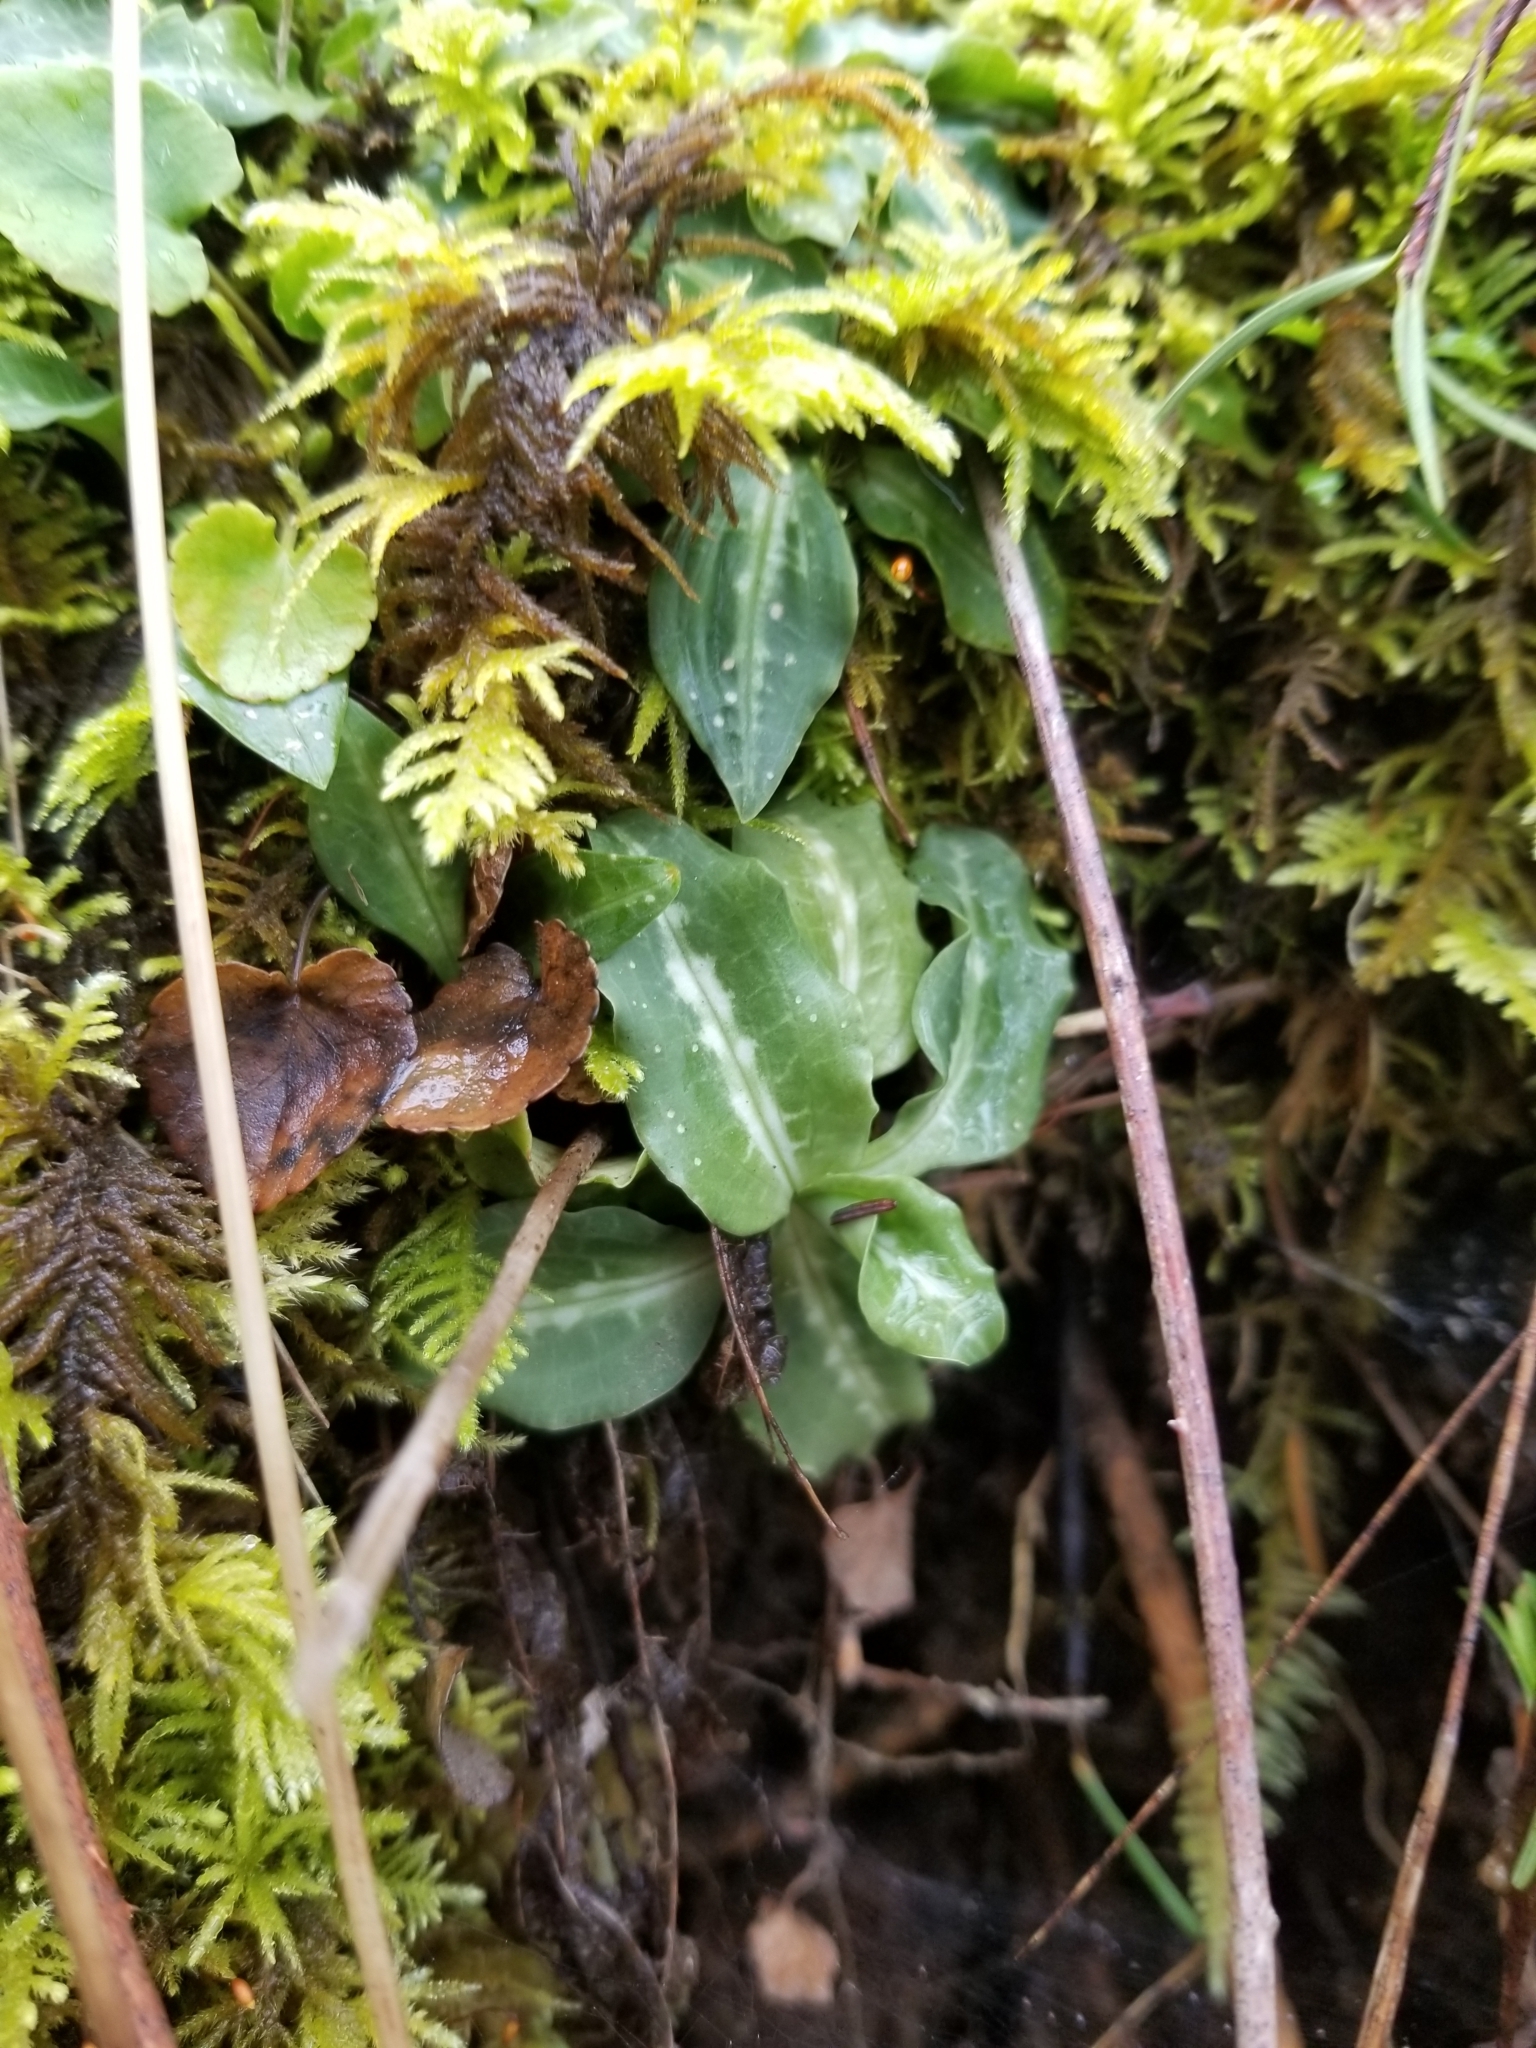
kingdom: Plantae
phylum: Tracheophyta
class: Liliopsida
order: Asparagales
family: Orchidaceae
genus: Goodyera
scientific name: Goodyera oblongifolia
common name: Giant rattlesnake-plantain
